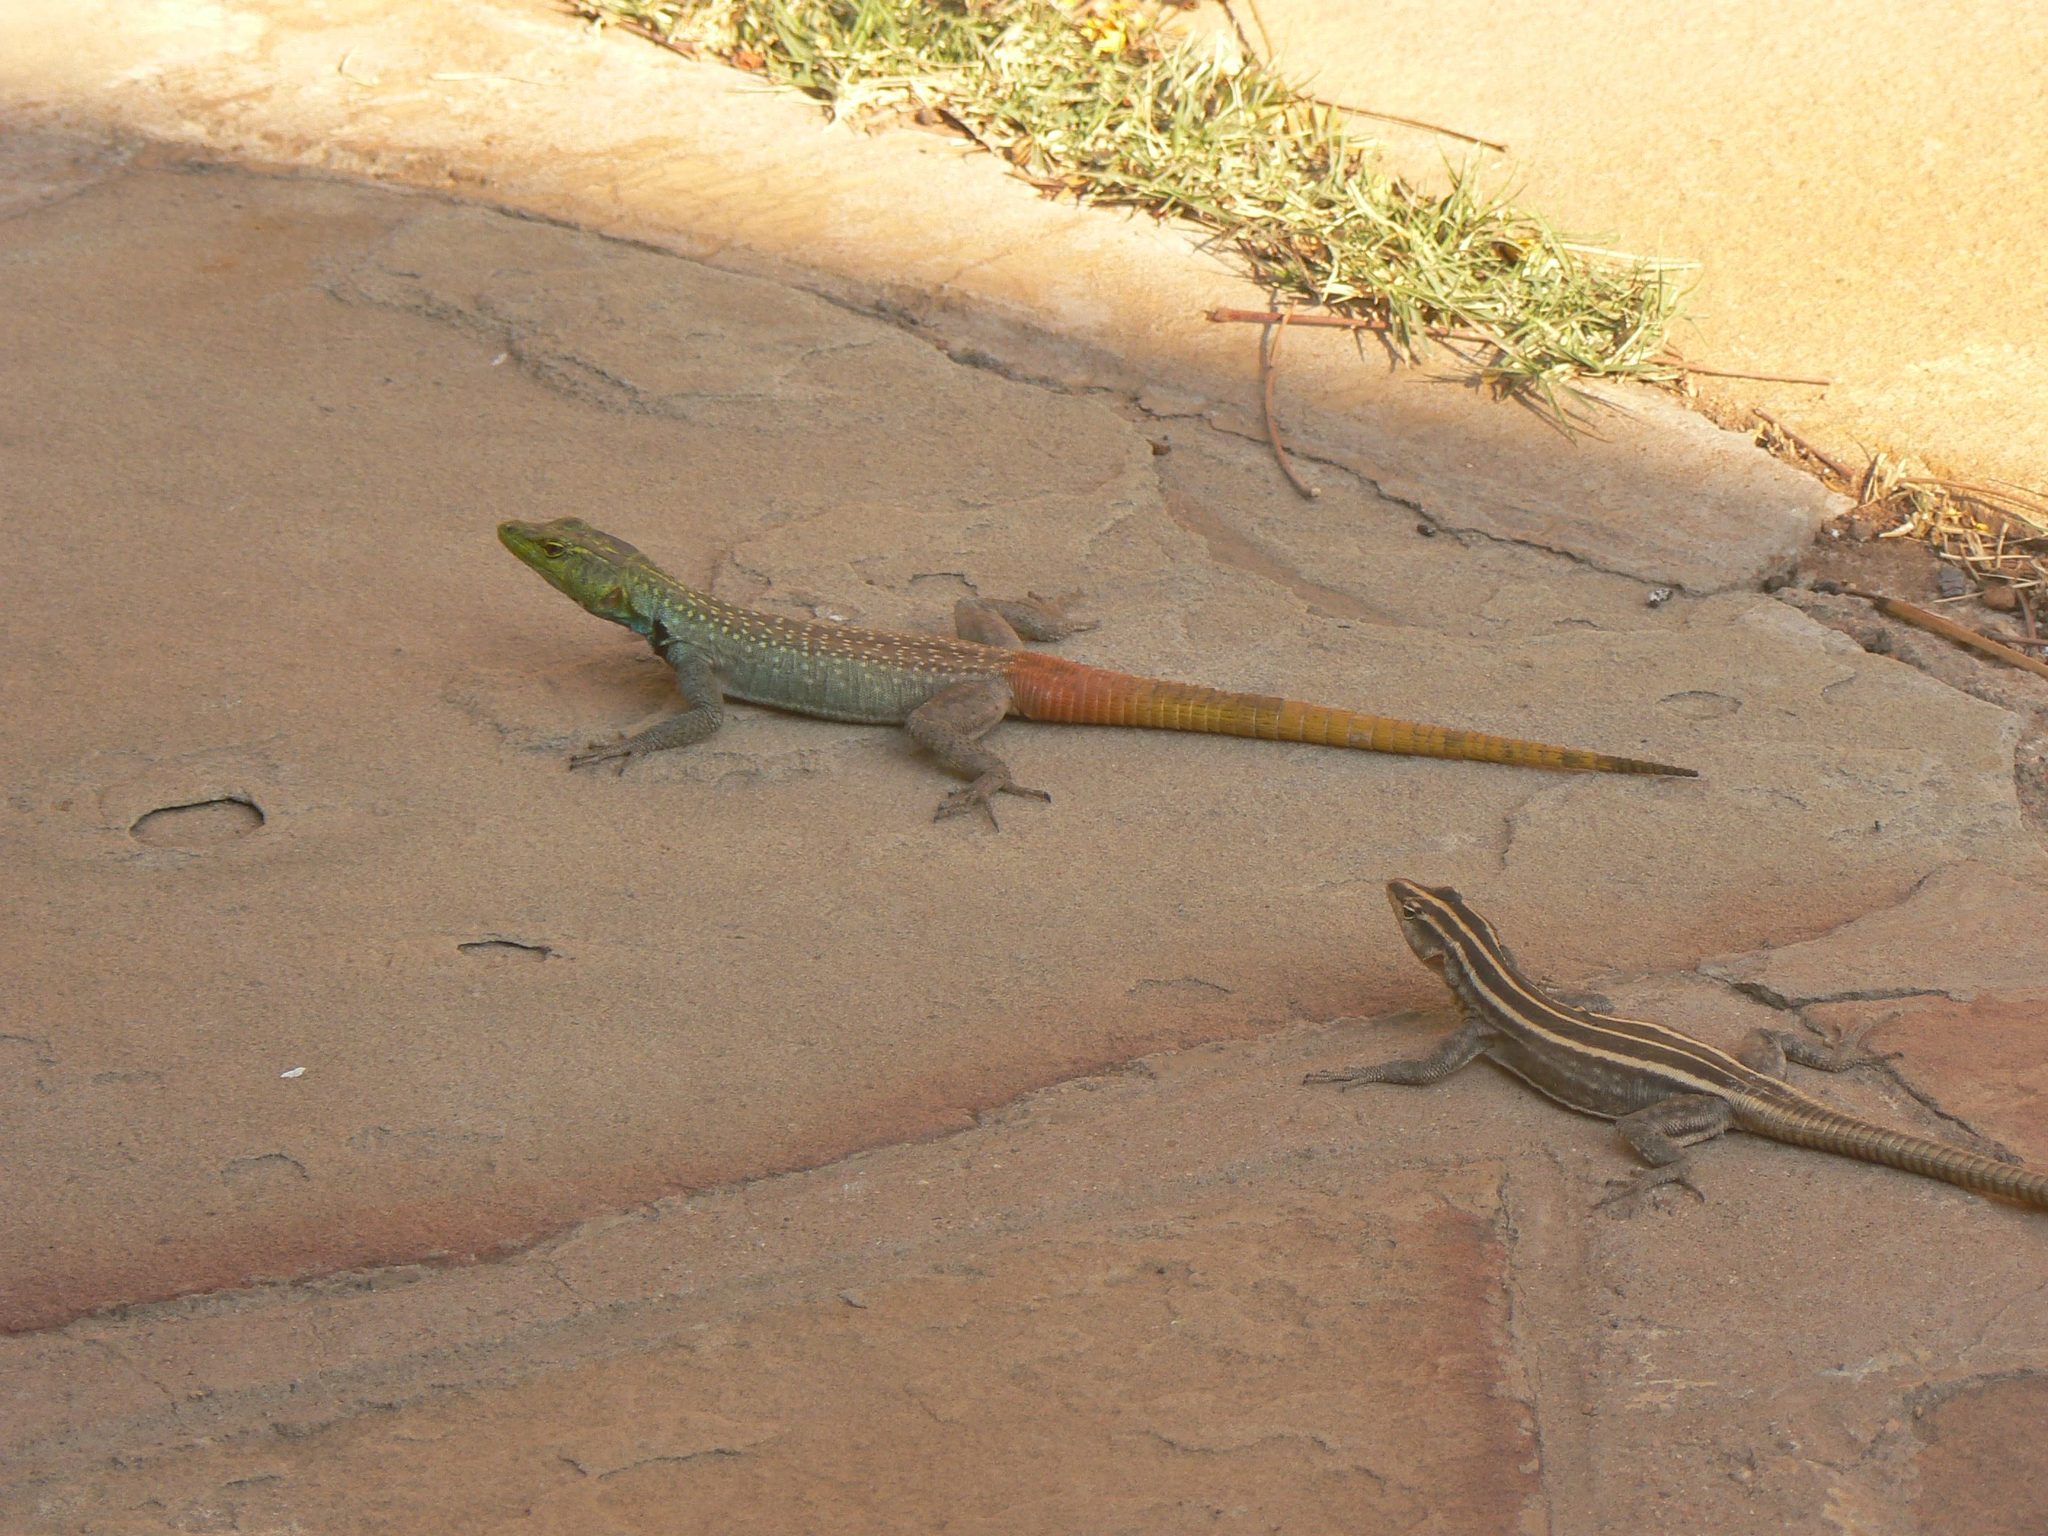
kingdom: Animalia
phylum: Chordata
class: Squamata
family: Cordylidae
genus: Platysaurus
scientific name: Platysaurus intermedius
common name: Common flat lizard
